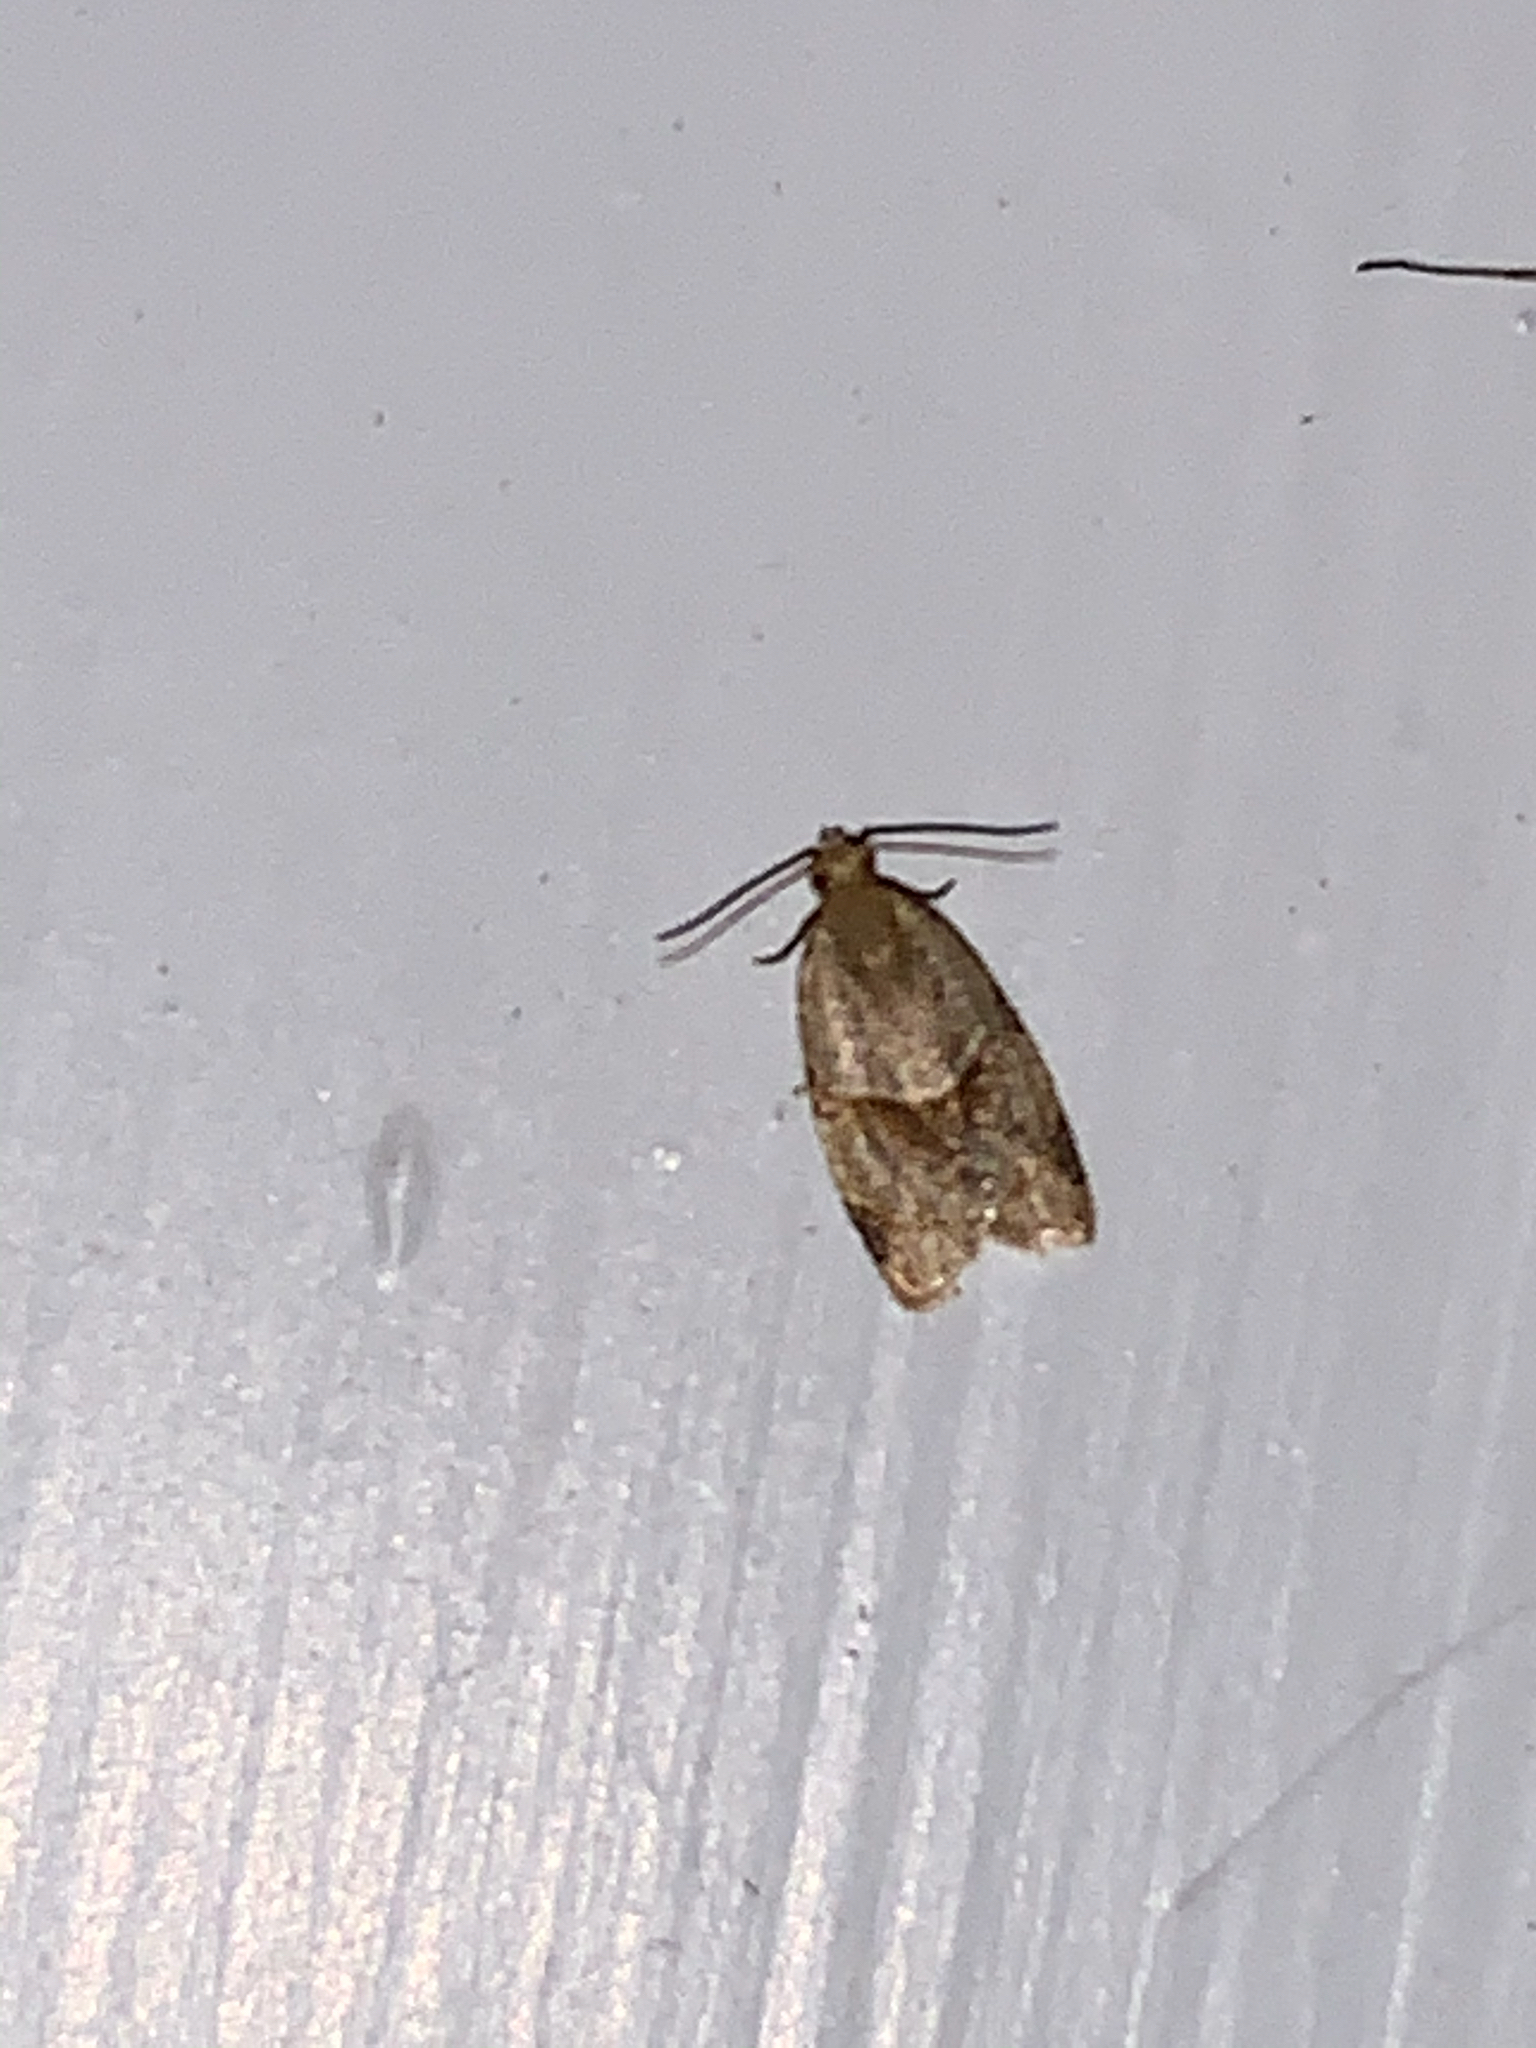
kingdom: Animalia
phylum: Arthropoda
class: Insecta
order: Lepidoptera
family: Tortricidae
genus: Clepsis
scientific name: Clepsis peritana
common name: Garden tortrix
